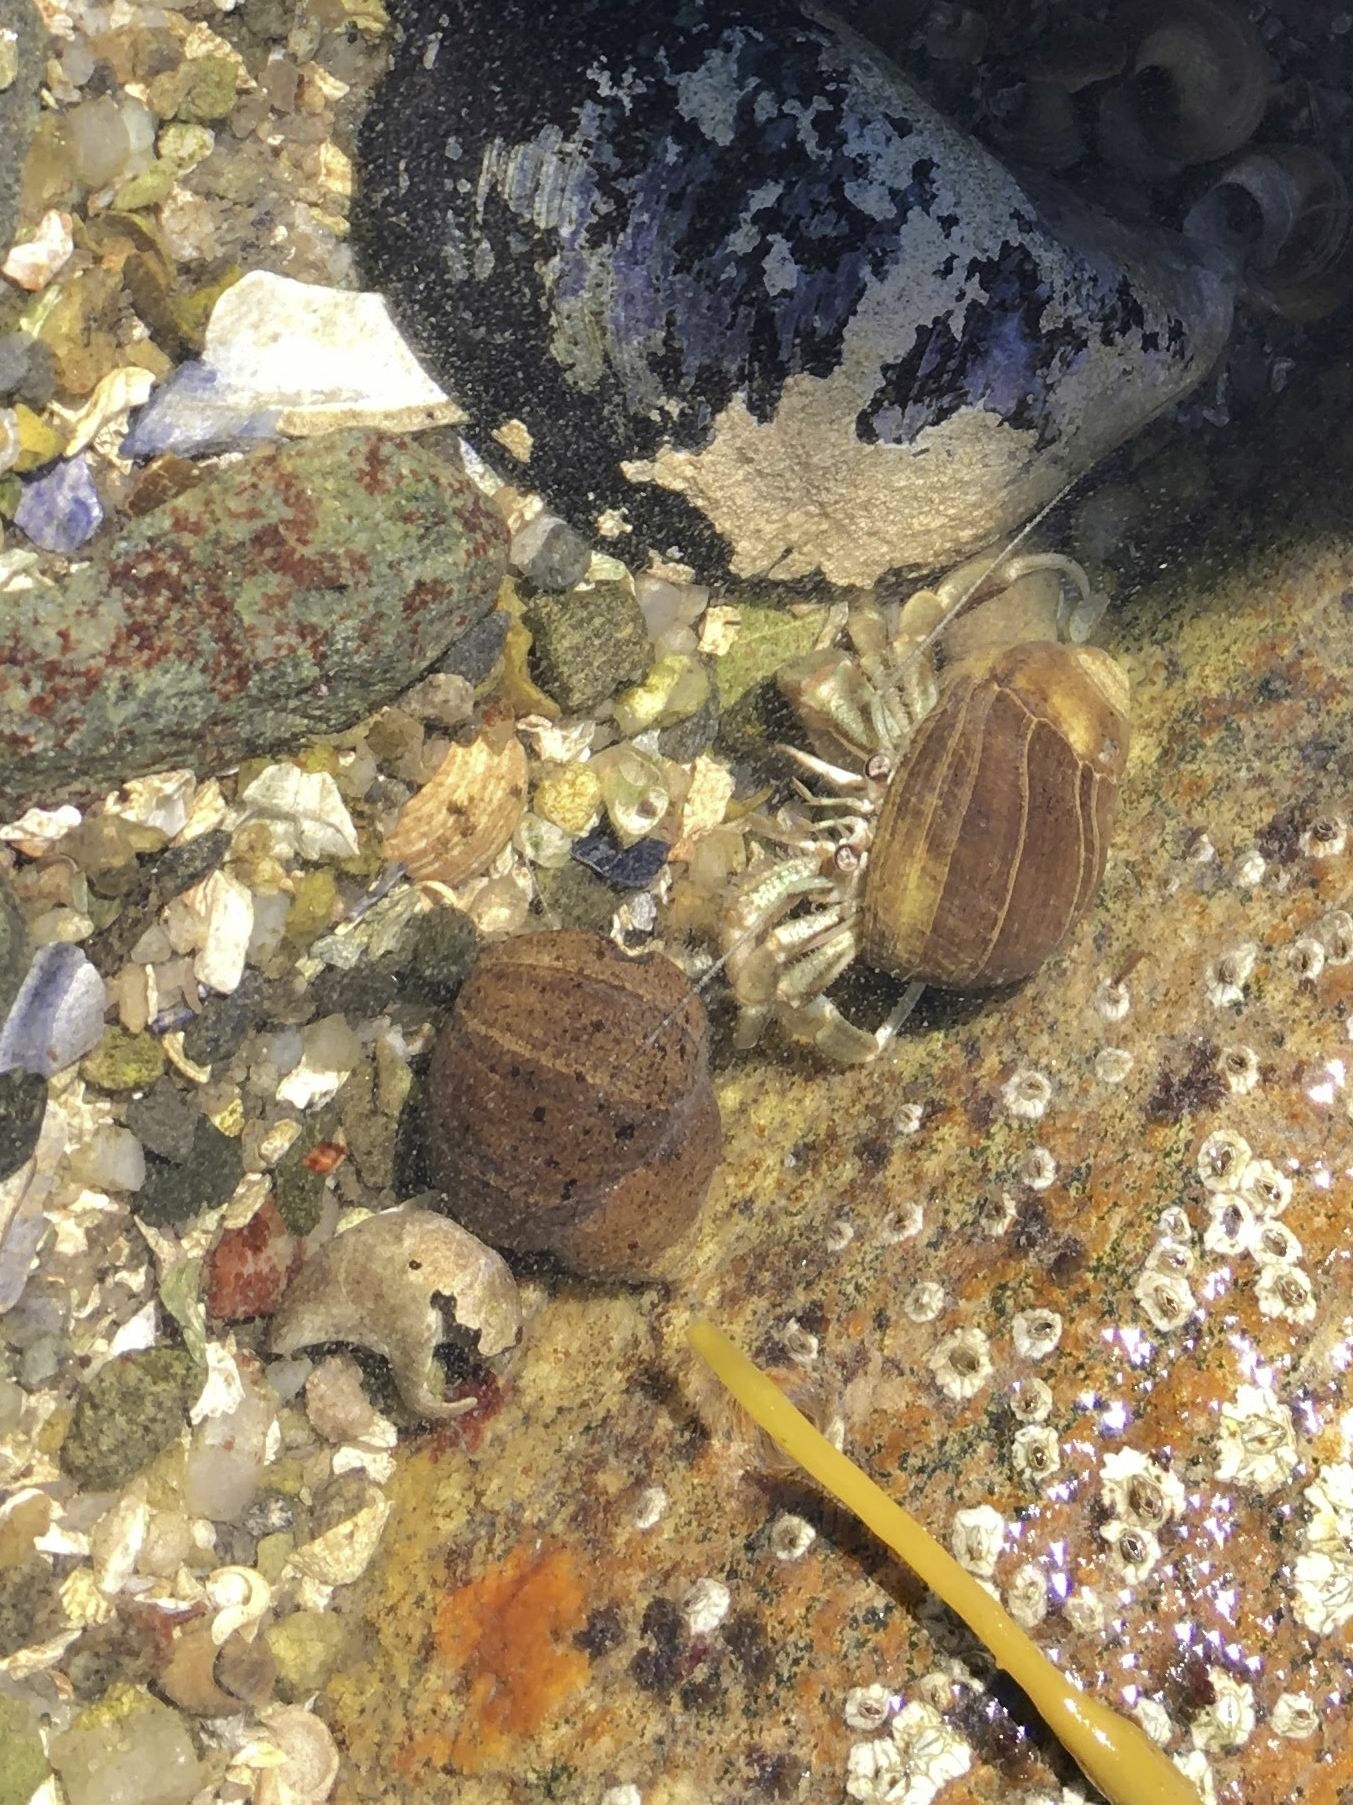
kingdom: Animalia
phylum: Arthropoda
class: Malacostraca
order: Decapoda
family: Paguridae
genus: Pagurus
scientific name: Pagurus longicarpus
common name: Long-armed hermit crab
